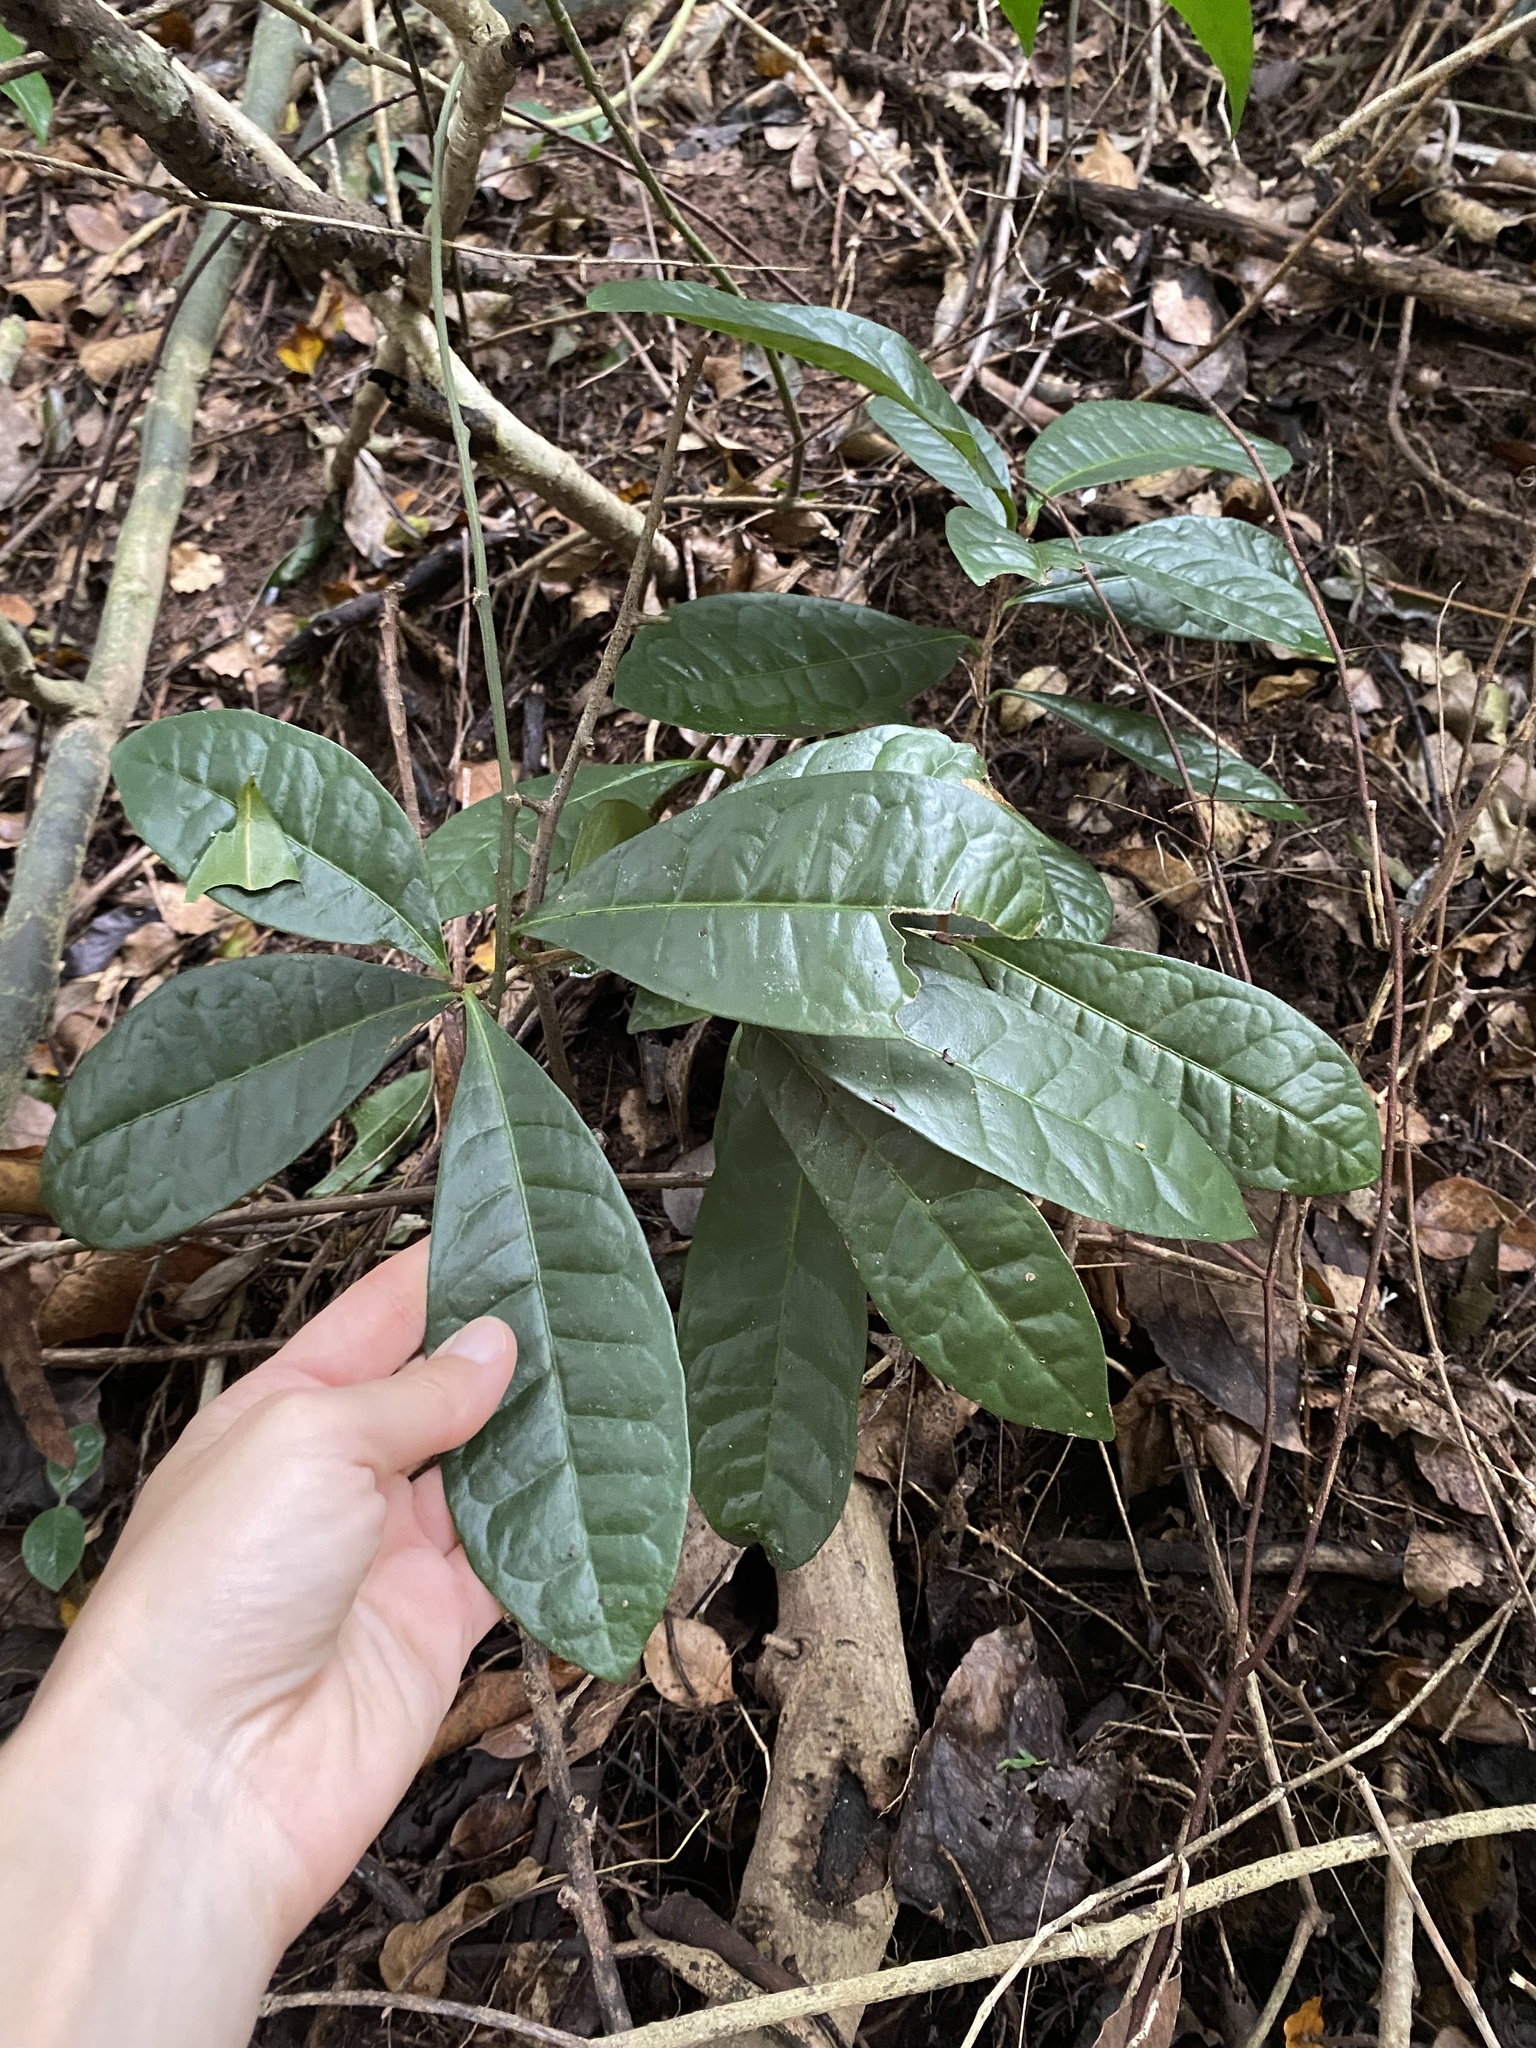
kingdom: Plantae
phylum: Tracheophyta
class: Magnoliopsida
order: Malpighiales
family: Malpighiaceae
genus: Acridocarpus
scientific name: Acridocarpus natalitius
